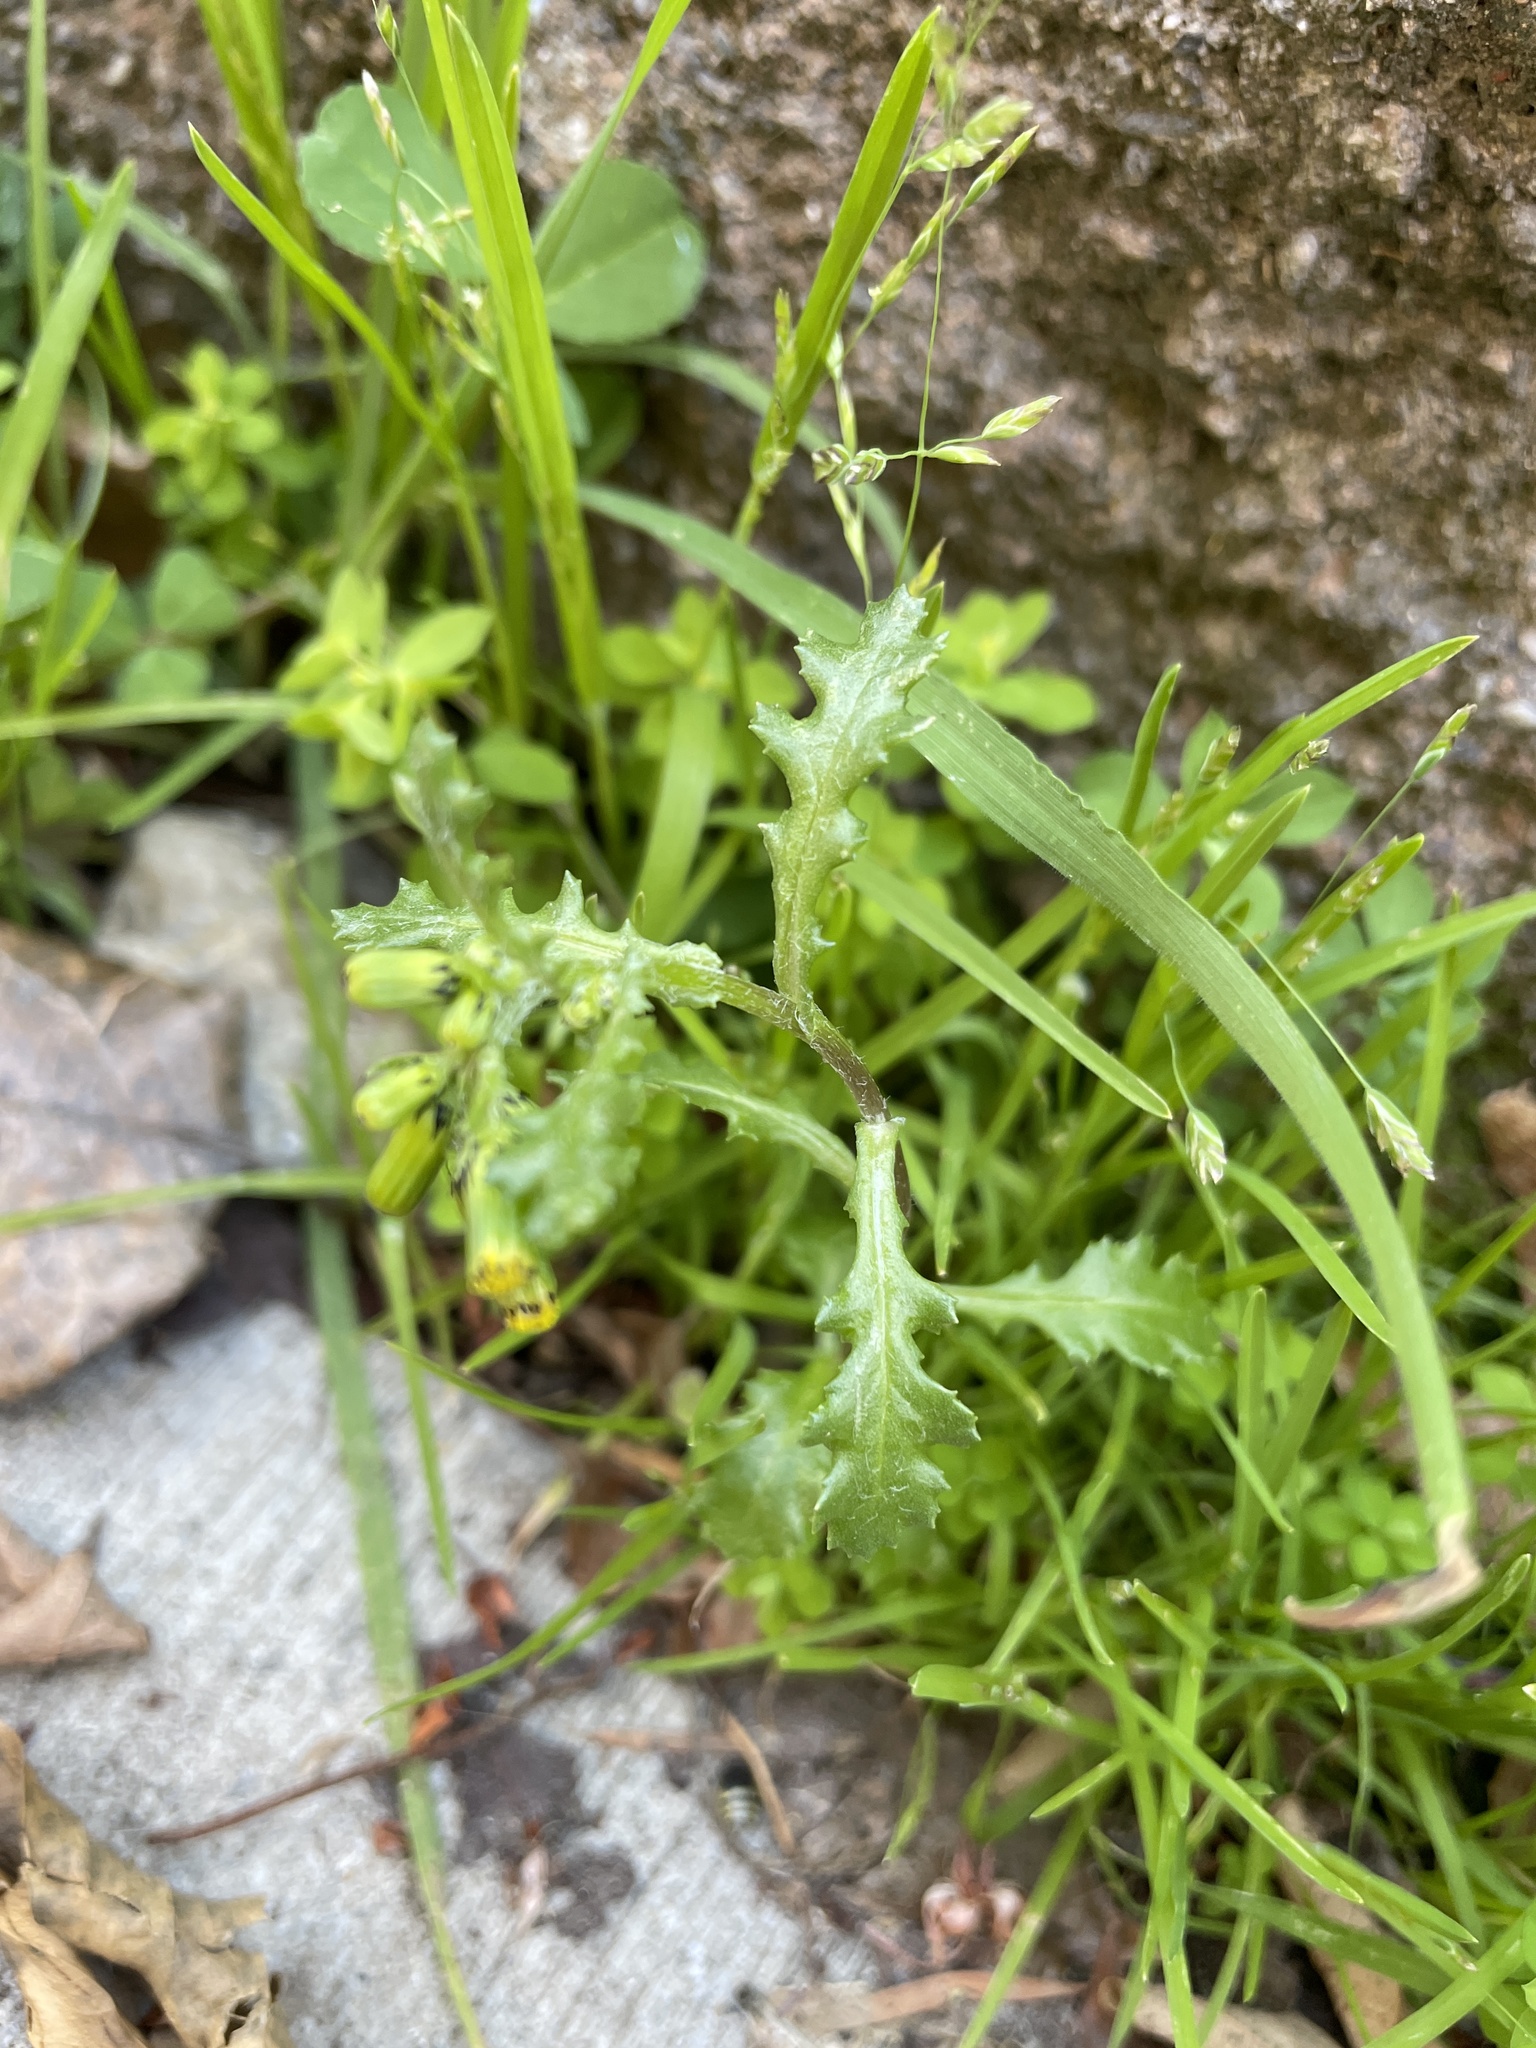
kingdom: Plantae
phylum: Tracheophyta
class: Magnoliopsida
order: Asterales
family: Asteraceae
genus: Senecio
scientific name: Senecio vulgaris
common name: Old-man-in-the-spring
